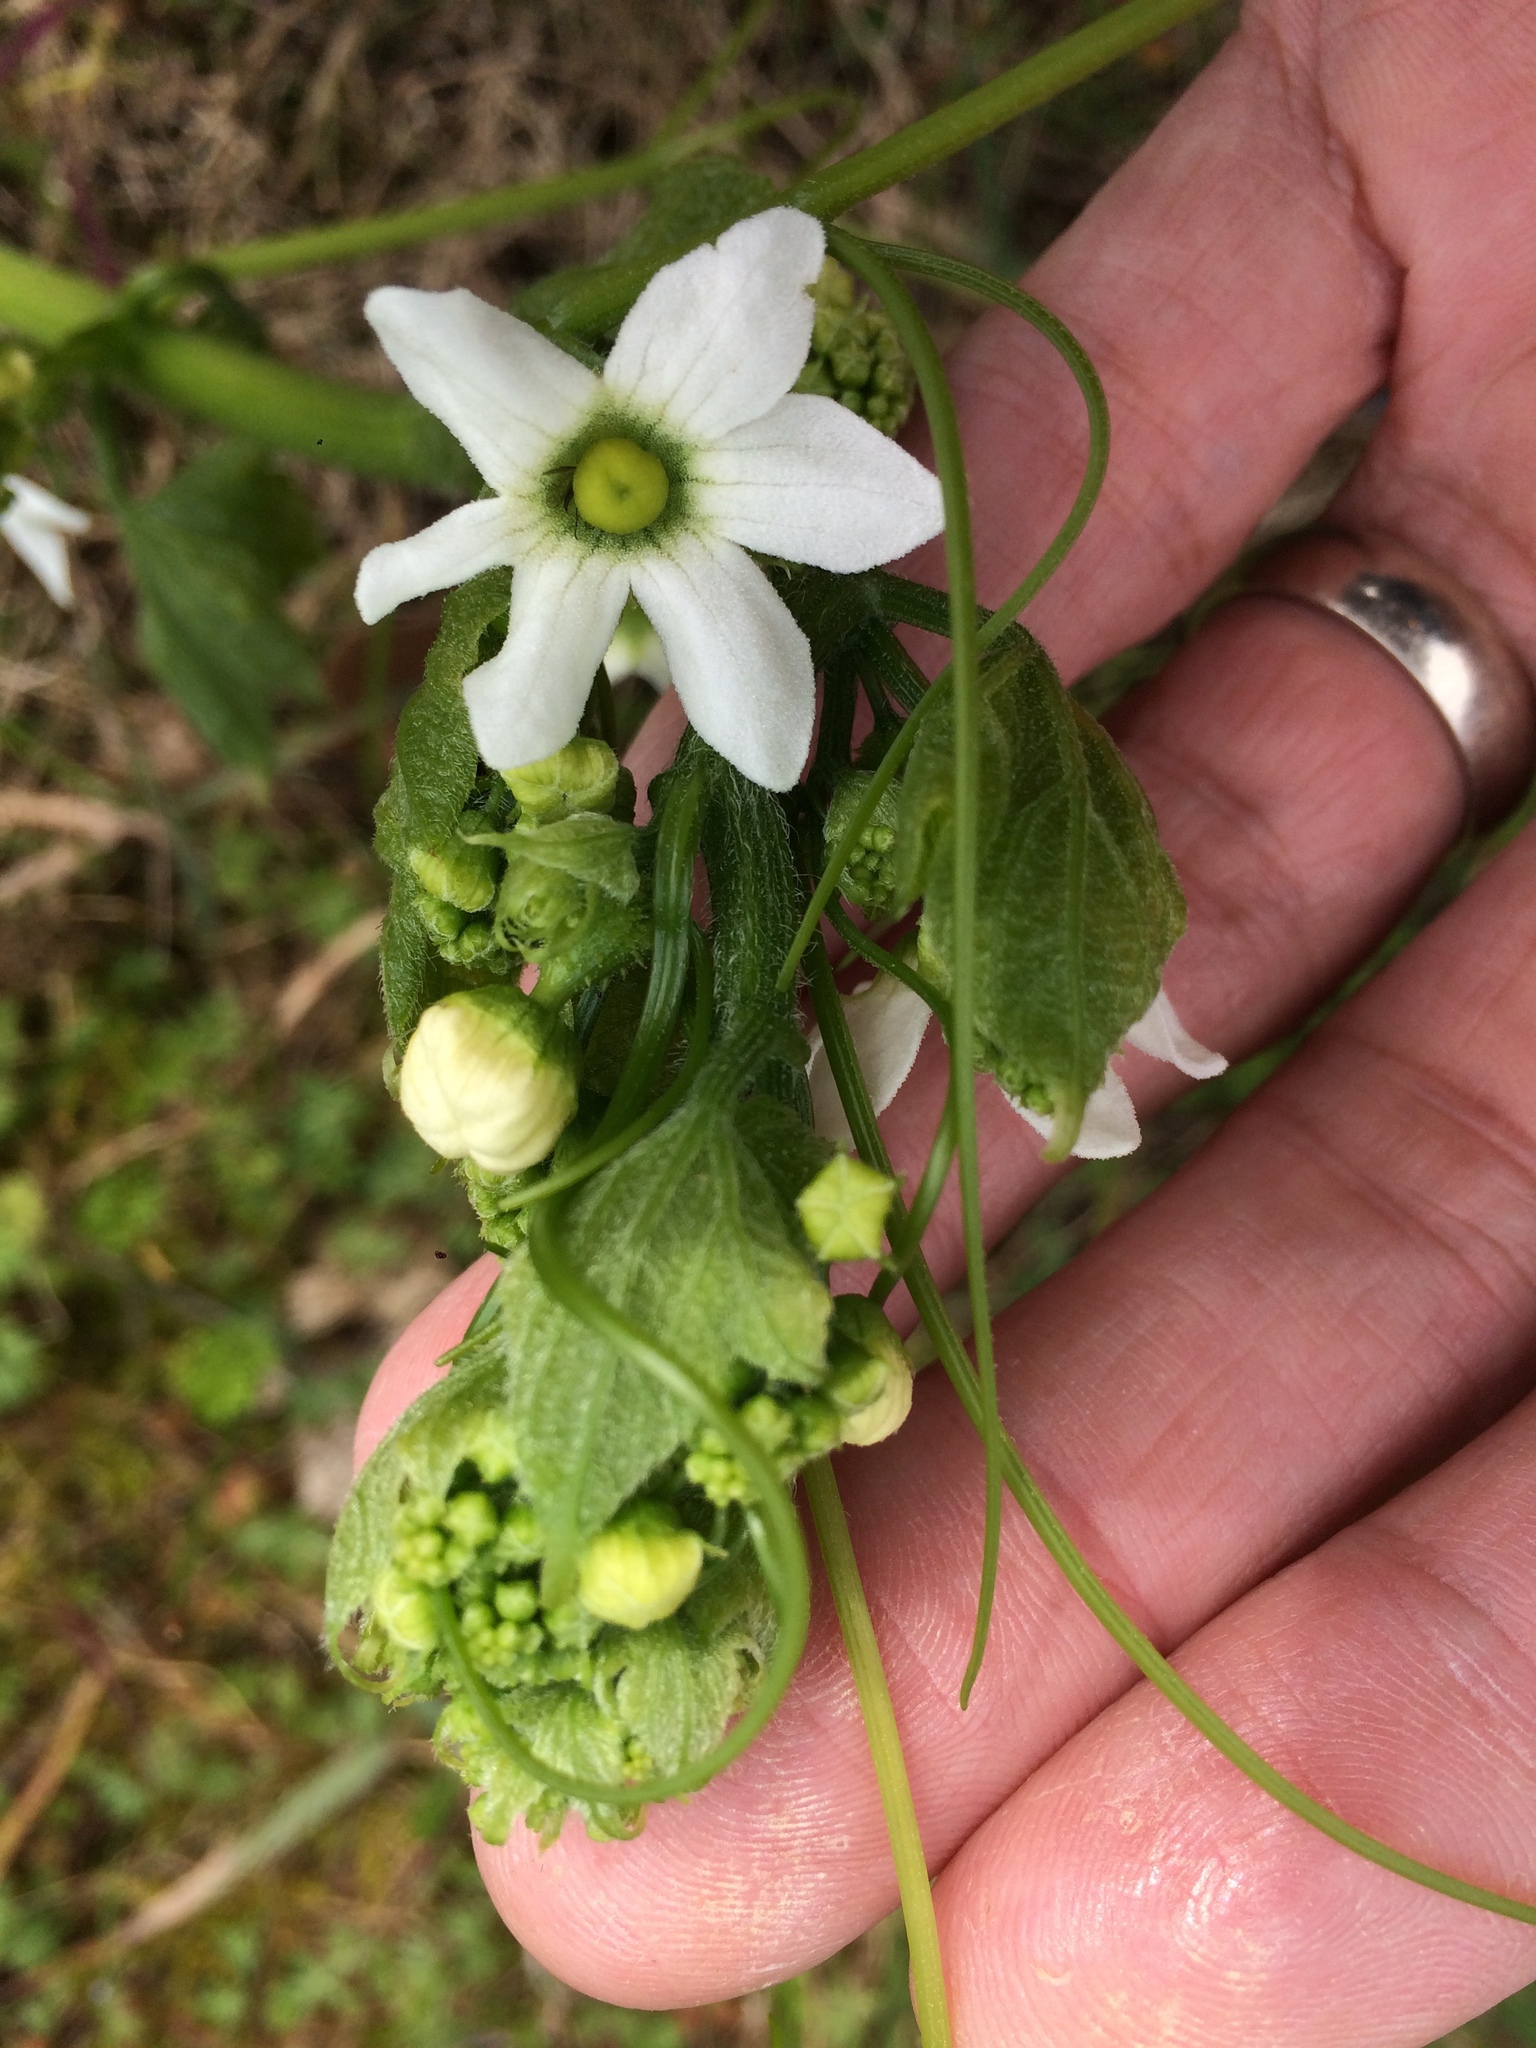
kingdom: Plantae
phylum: Tracheophyta
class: Magnoliopsida
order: Cucurbitales
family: Cucurbitaceae
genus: Marah
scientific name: Marah oregana
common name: Coastal manroot
